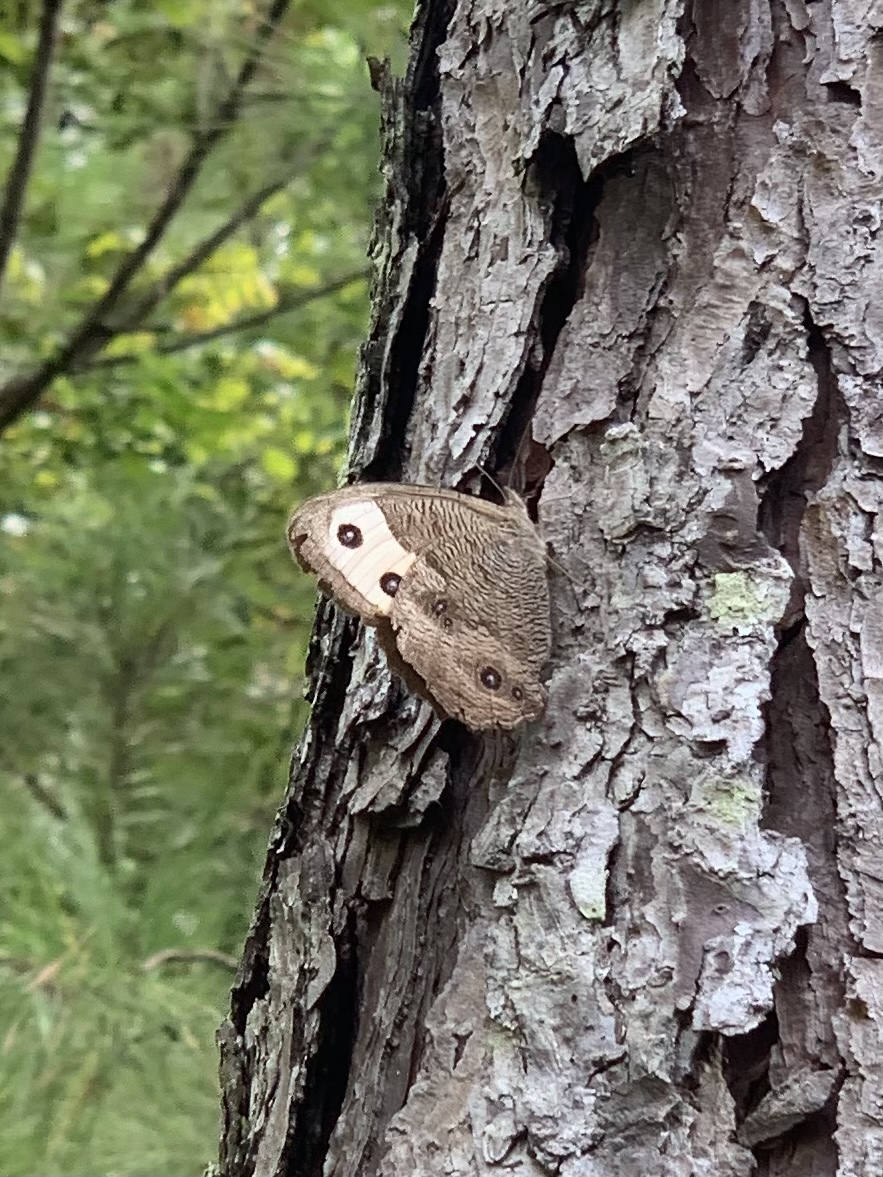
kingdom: Animalia
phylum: Arthropoda
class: Insecta
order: Lepidoptera
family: Nymphalidae
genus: Cercyonis
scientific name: Cercyonis pegala
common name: Common wood-nymph
